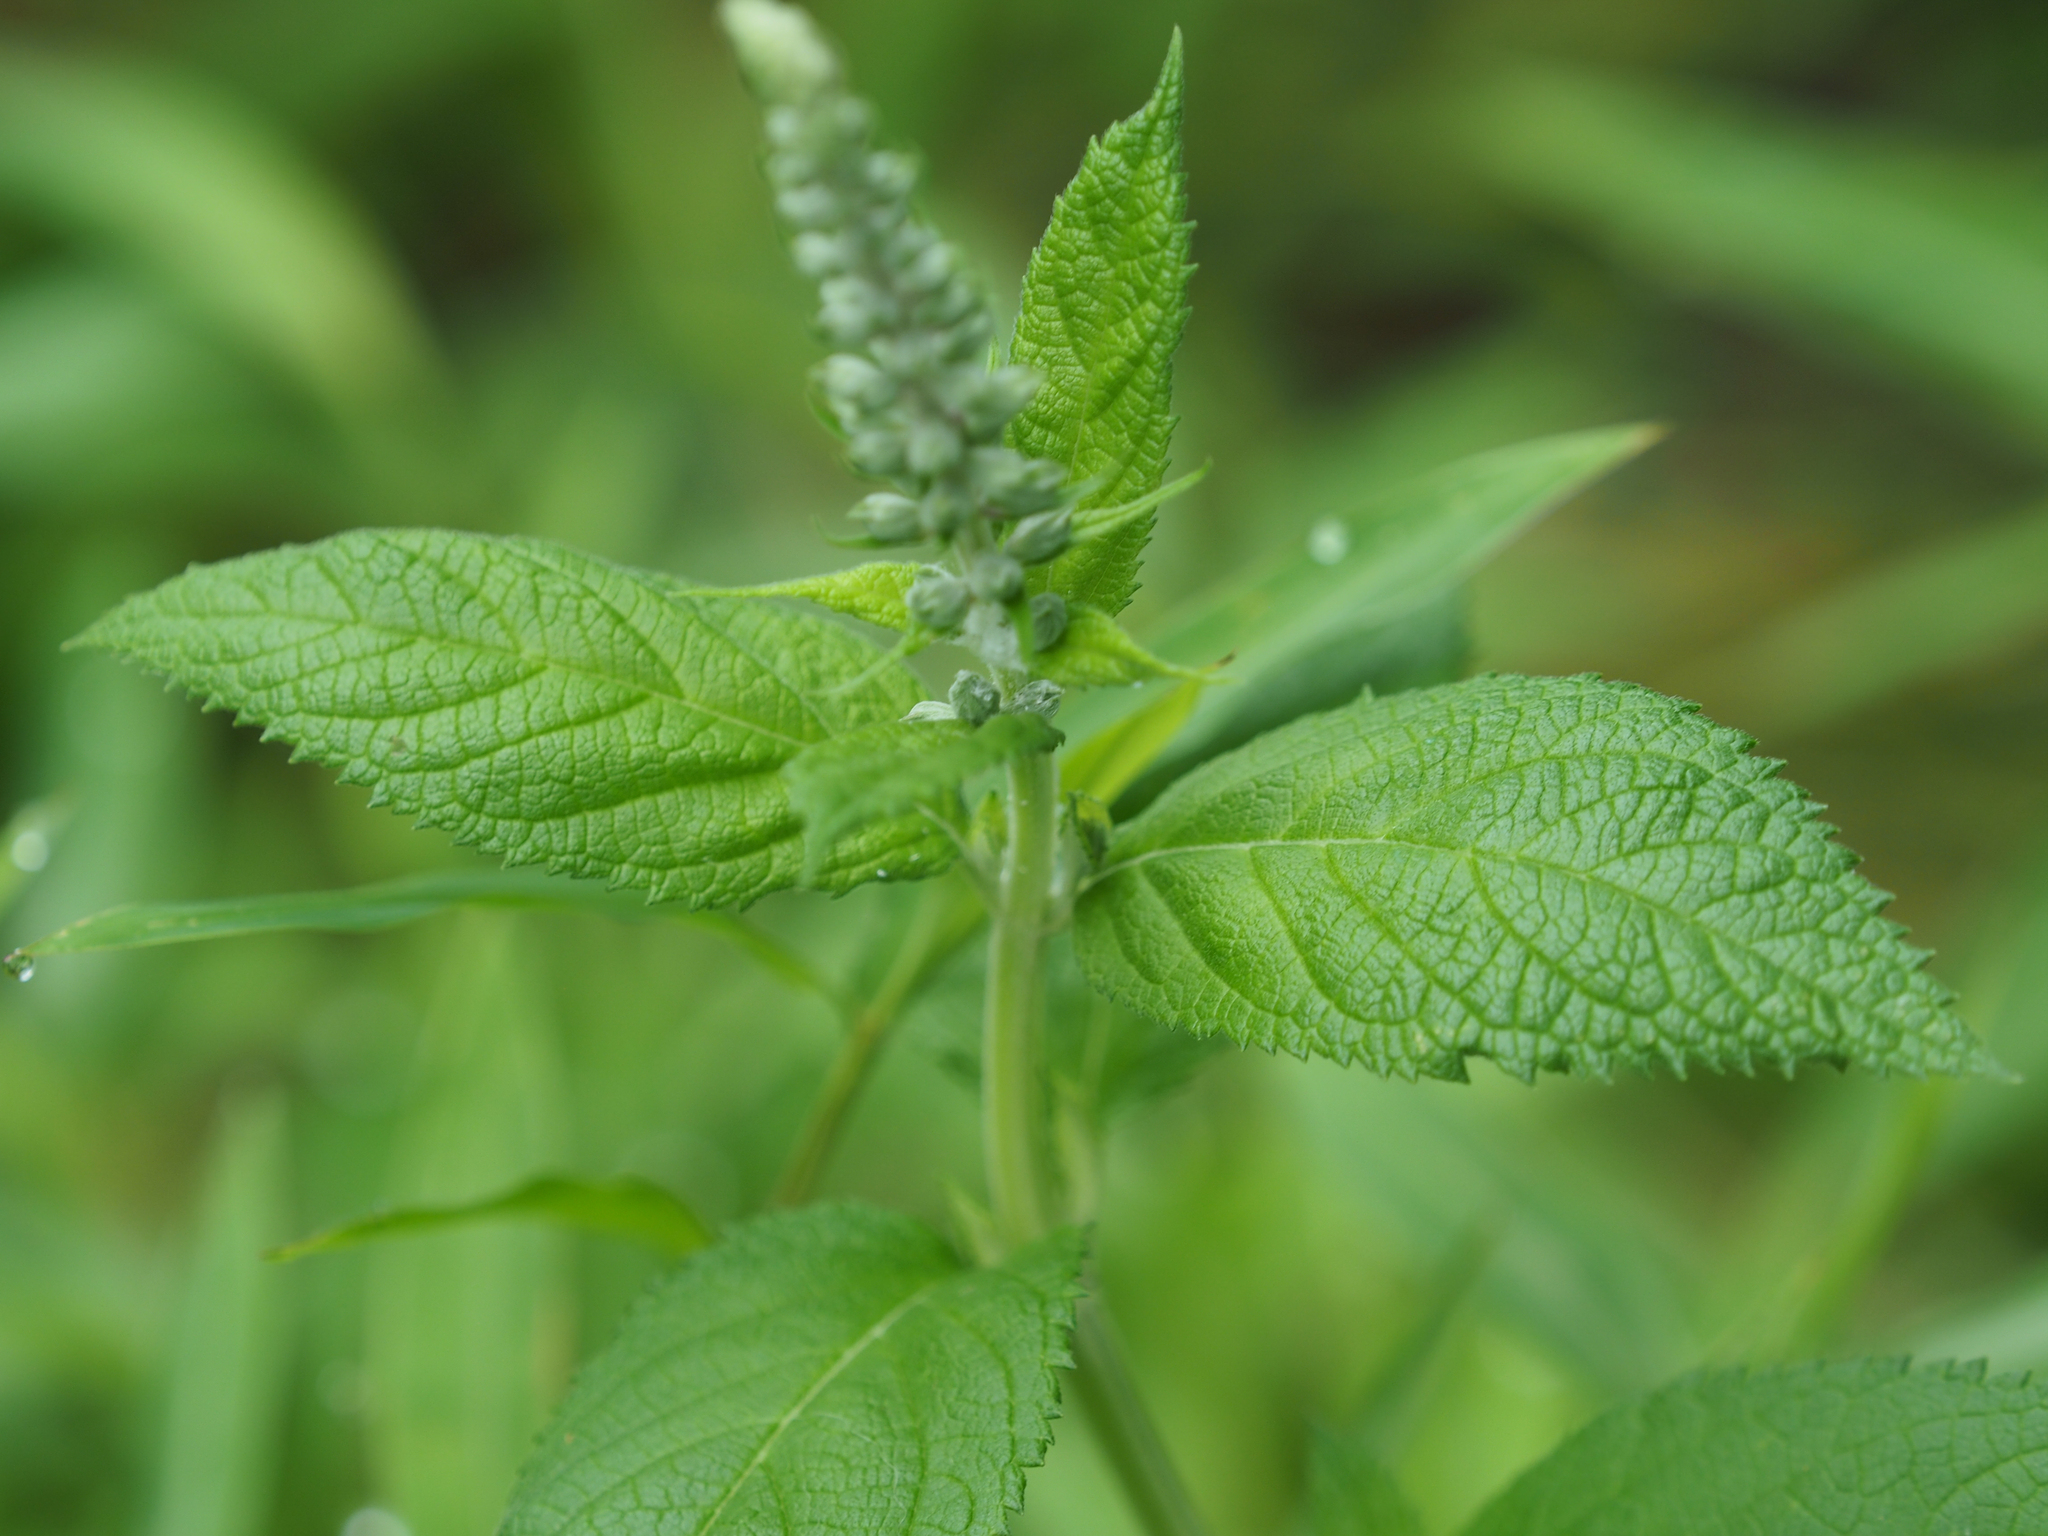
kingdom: Plantae
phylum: Tracheophyta
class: Magnoliopsida
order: Lamiales
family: Lamiaceae
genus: Teucrium
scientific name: Teucrium canadense
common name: American germander
